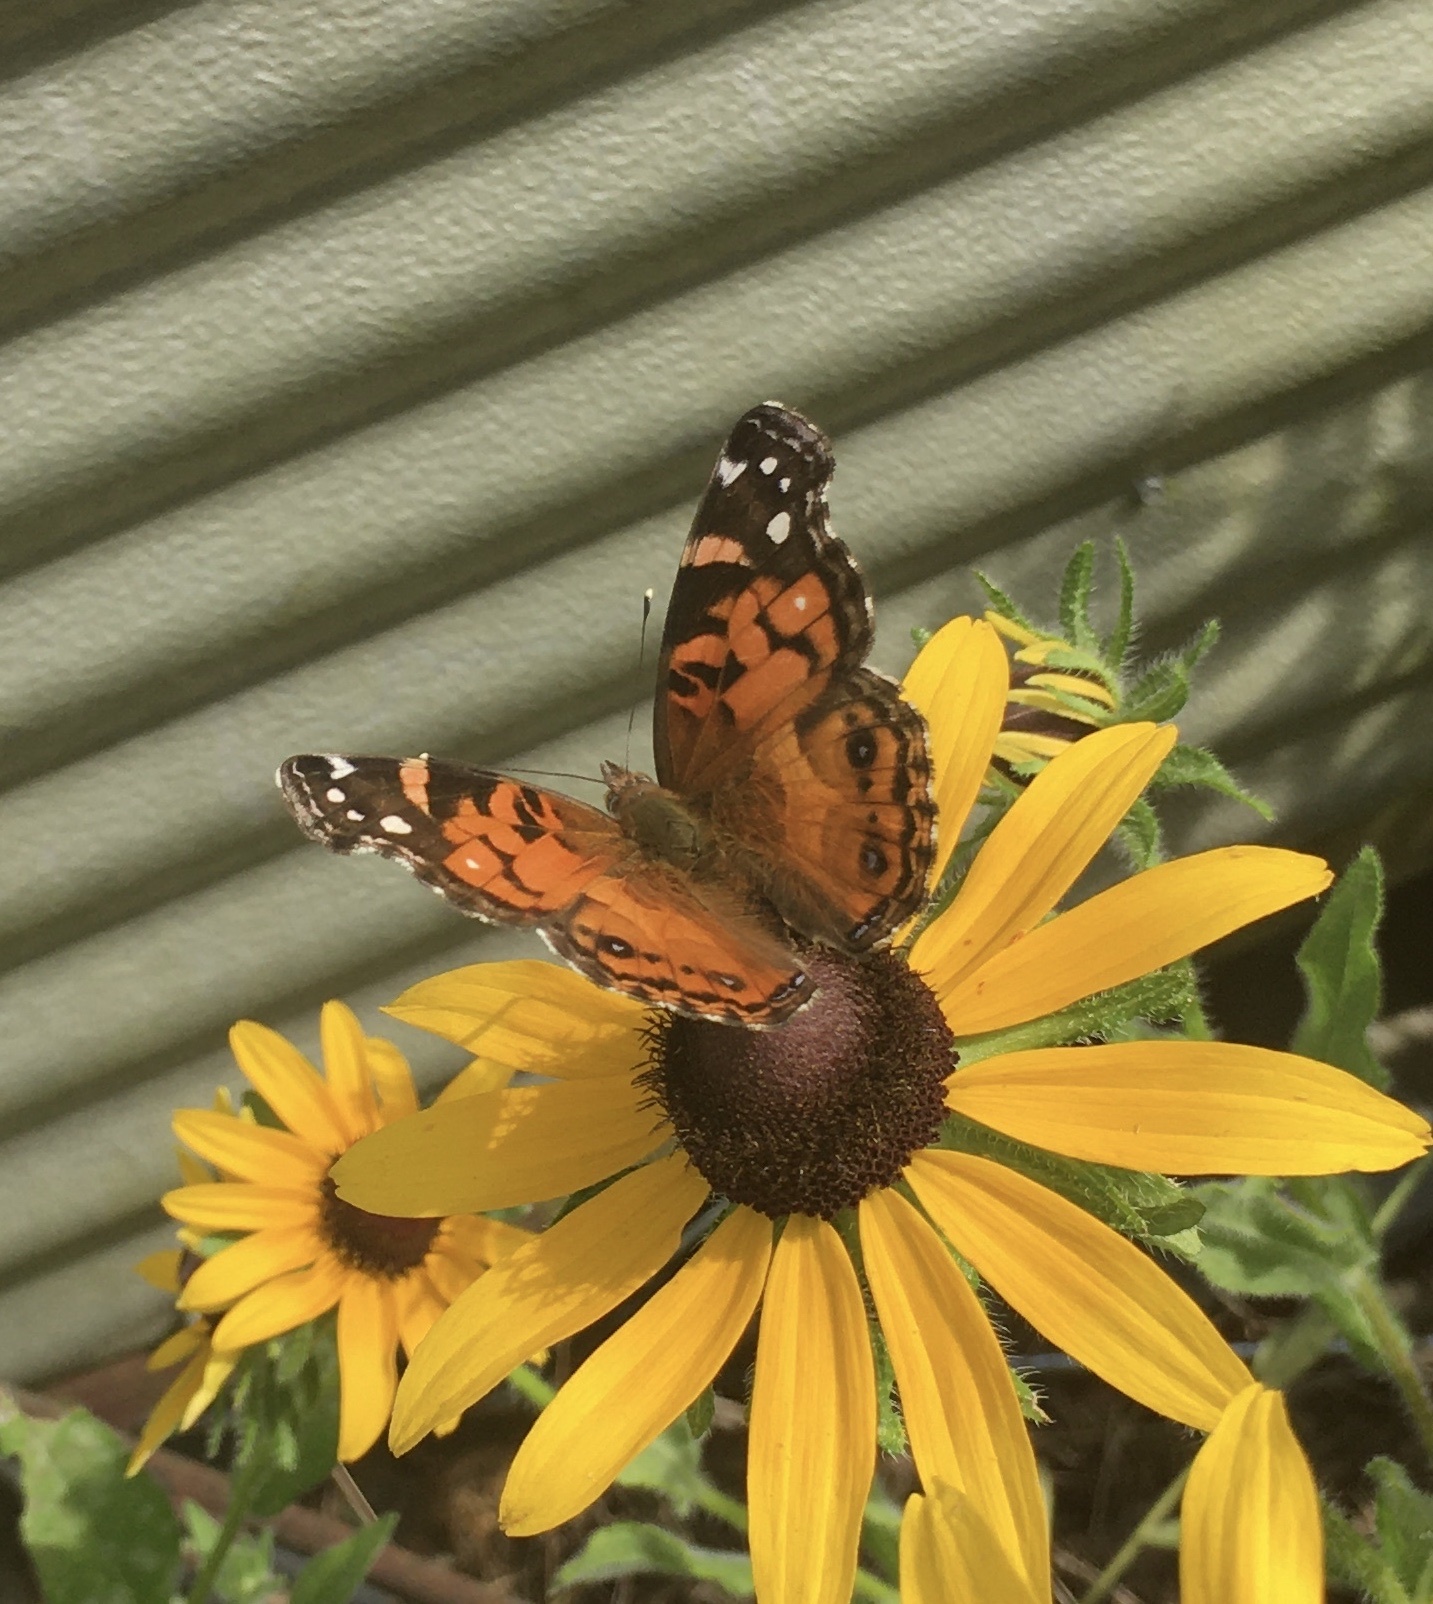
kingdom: Animalia
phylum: Arthropoda
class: Insecta
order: Lepidoptera
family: Nymphalidae
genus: Vanessa
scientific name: Vanessa virginiensis
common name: American lady
